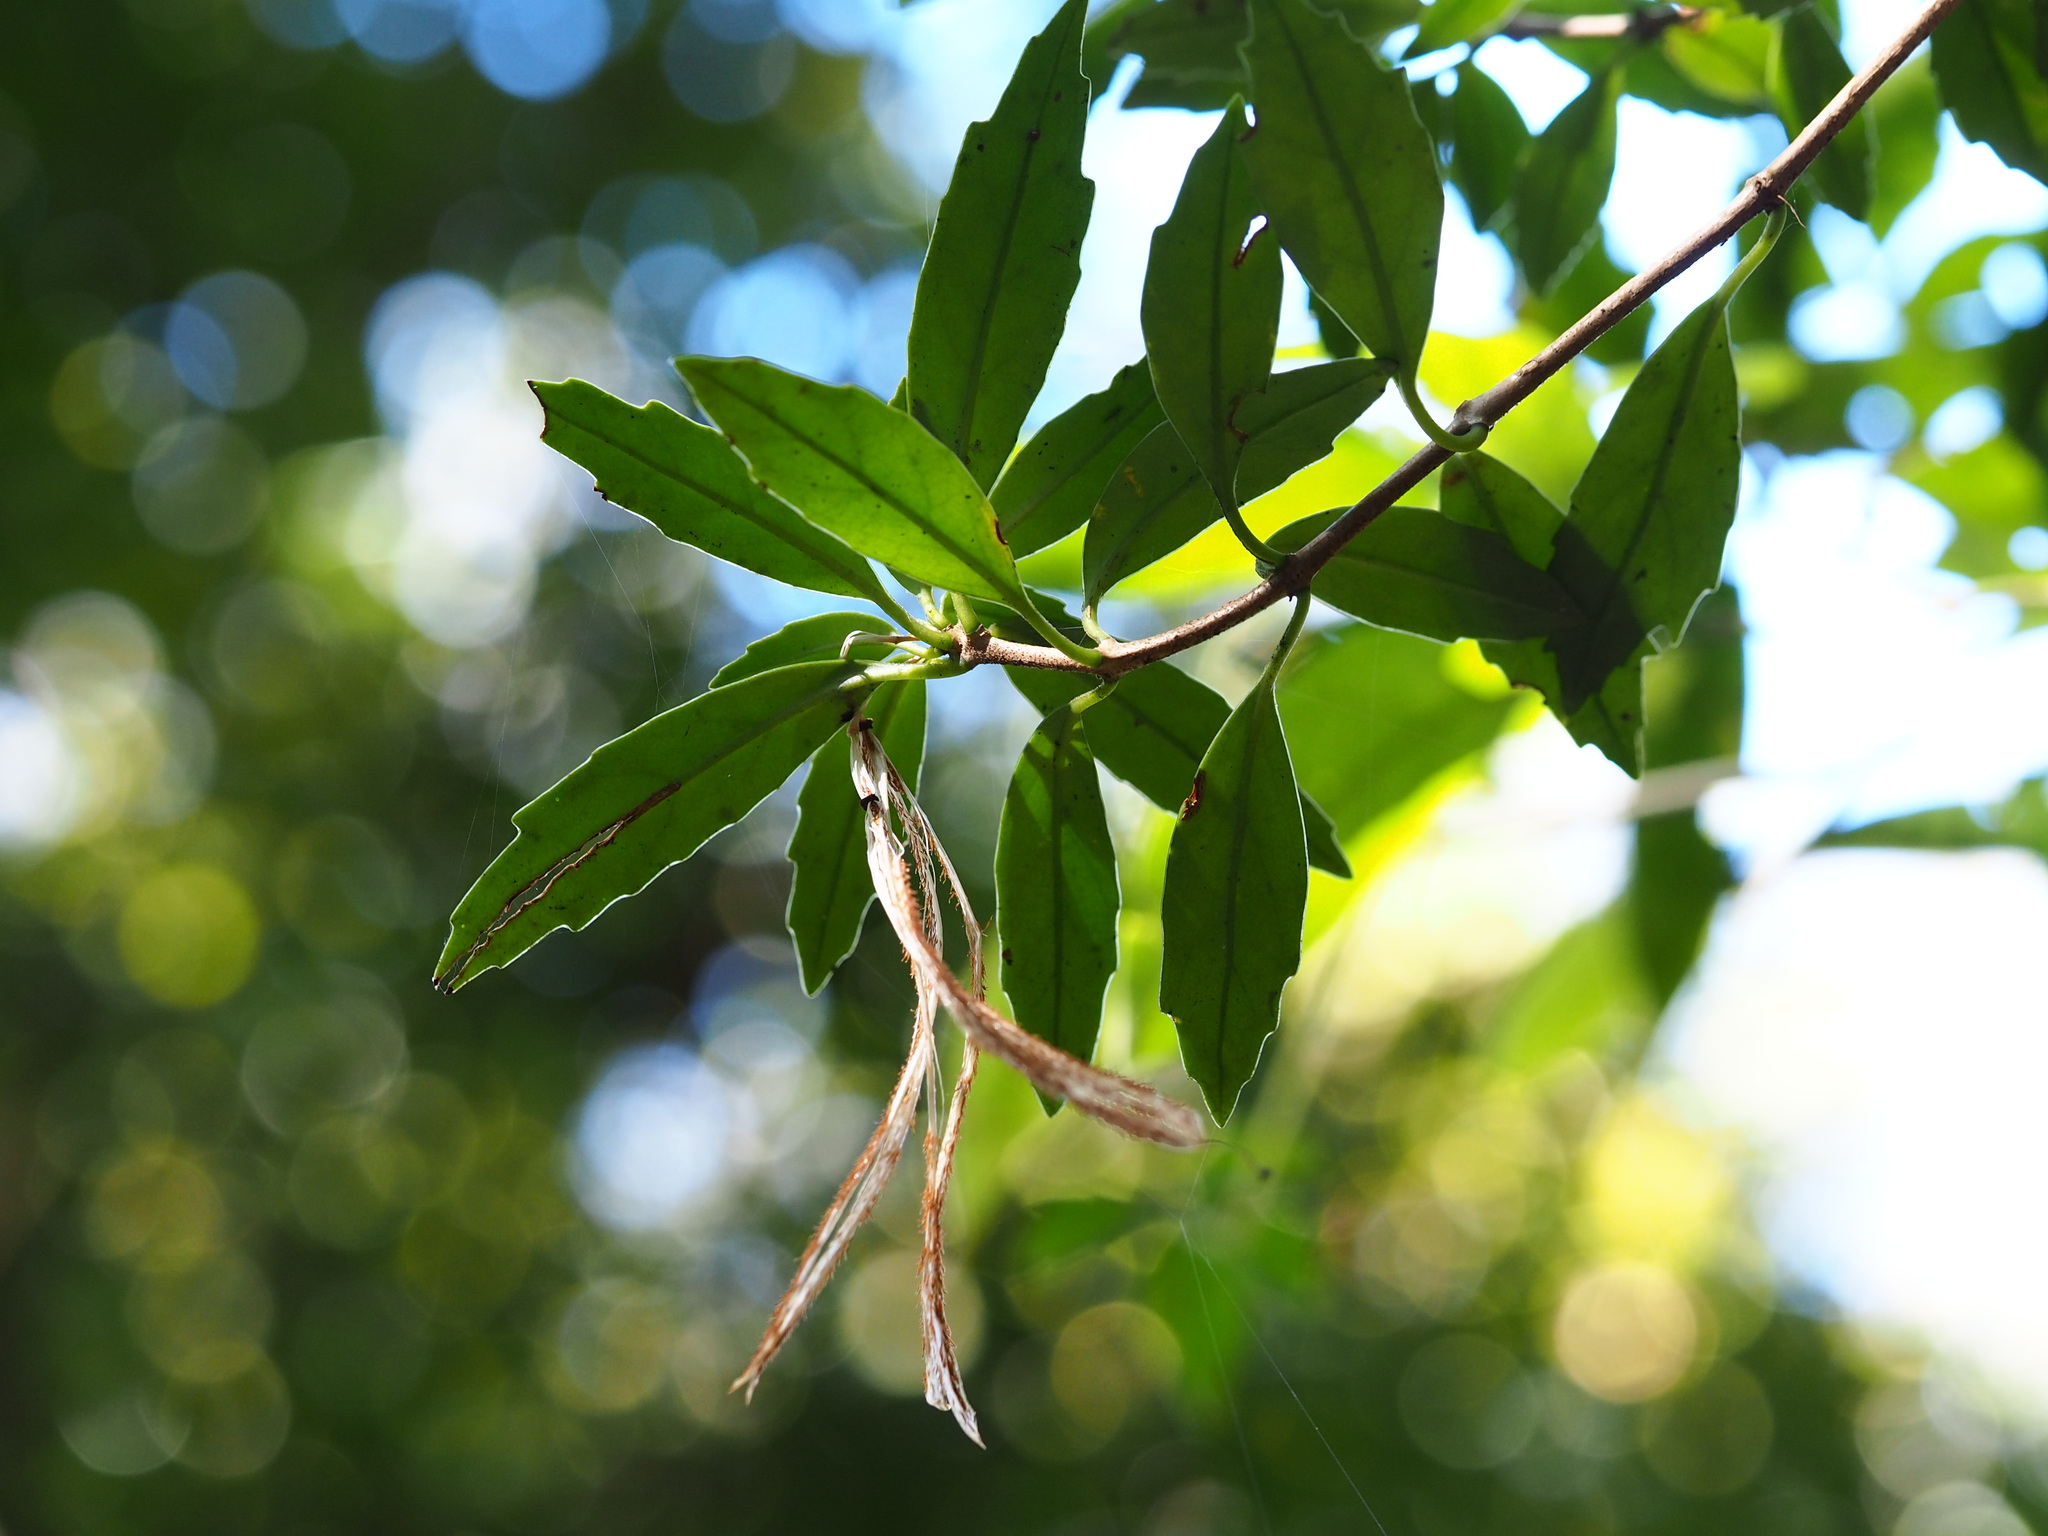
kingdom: Plantae
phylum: Tracheophyta
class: Magnoliopsida
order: Lamiales
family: Gesneriaceae
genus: Lysionotus
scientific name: Lysionotus pauciflorus
